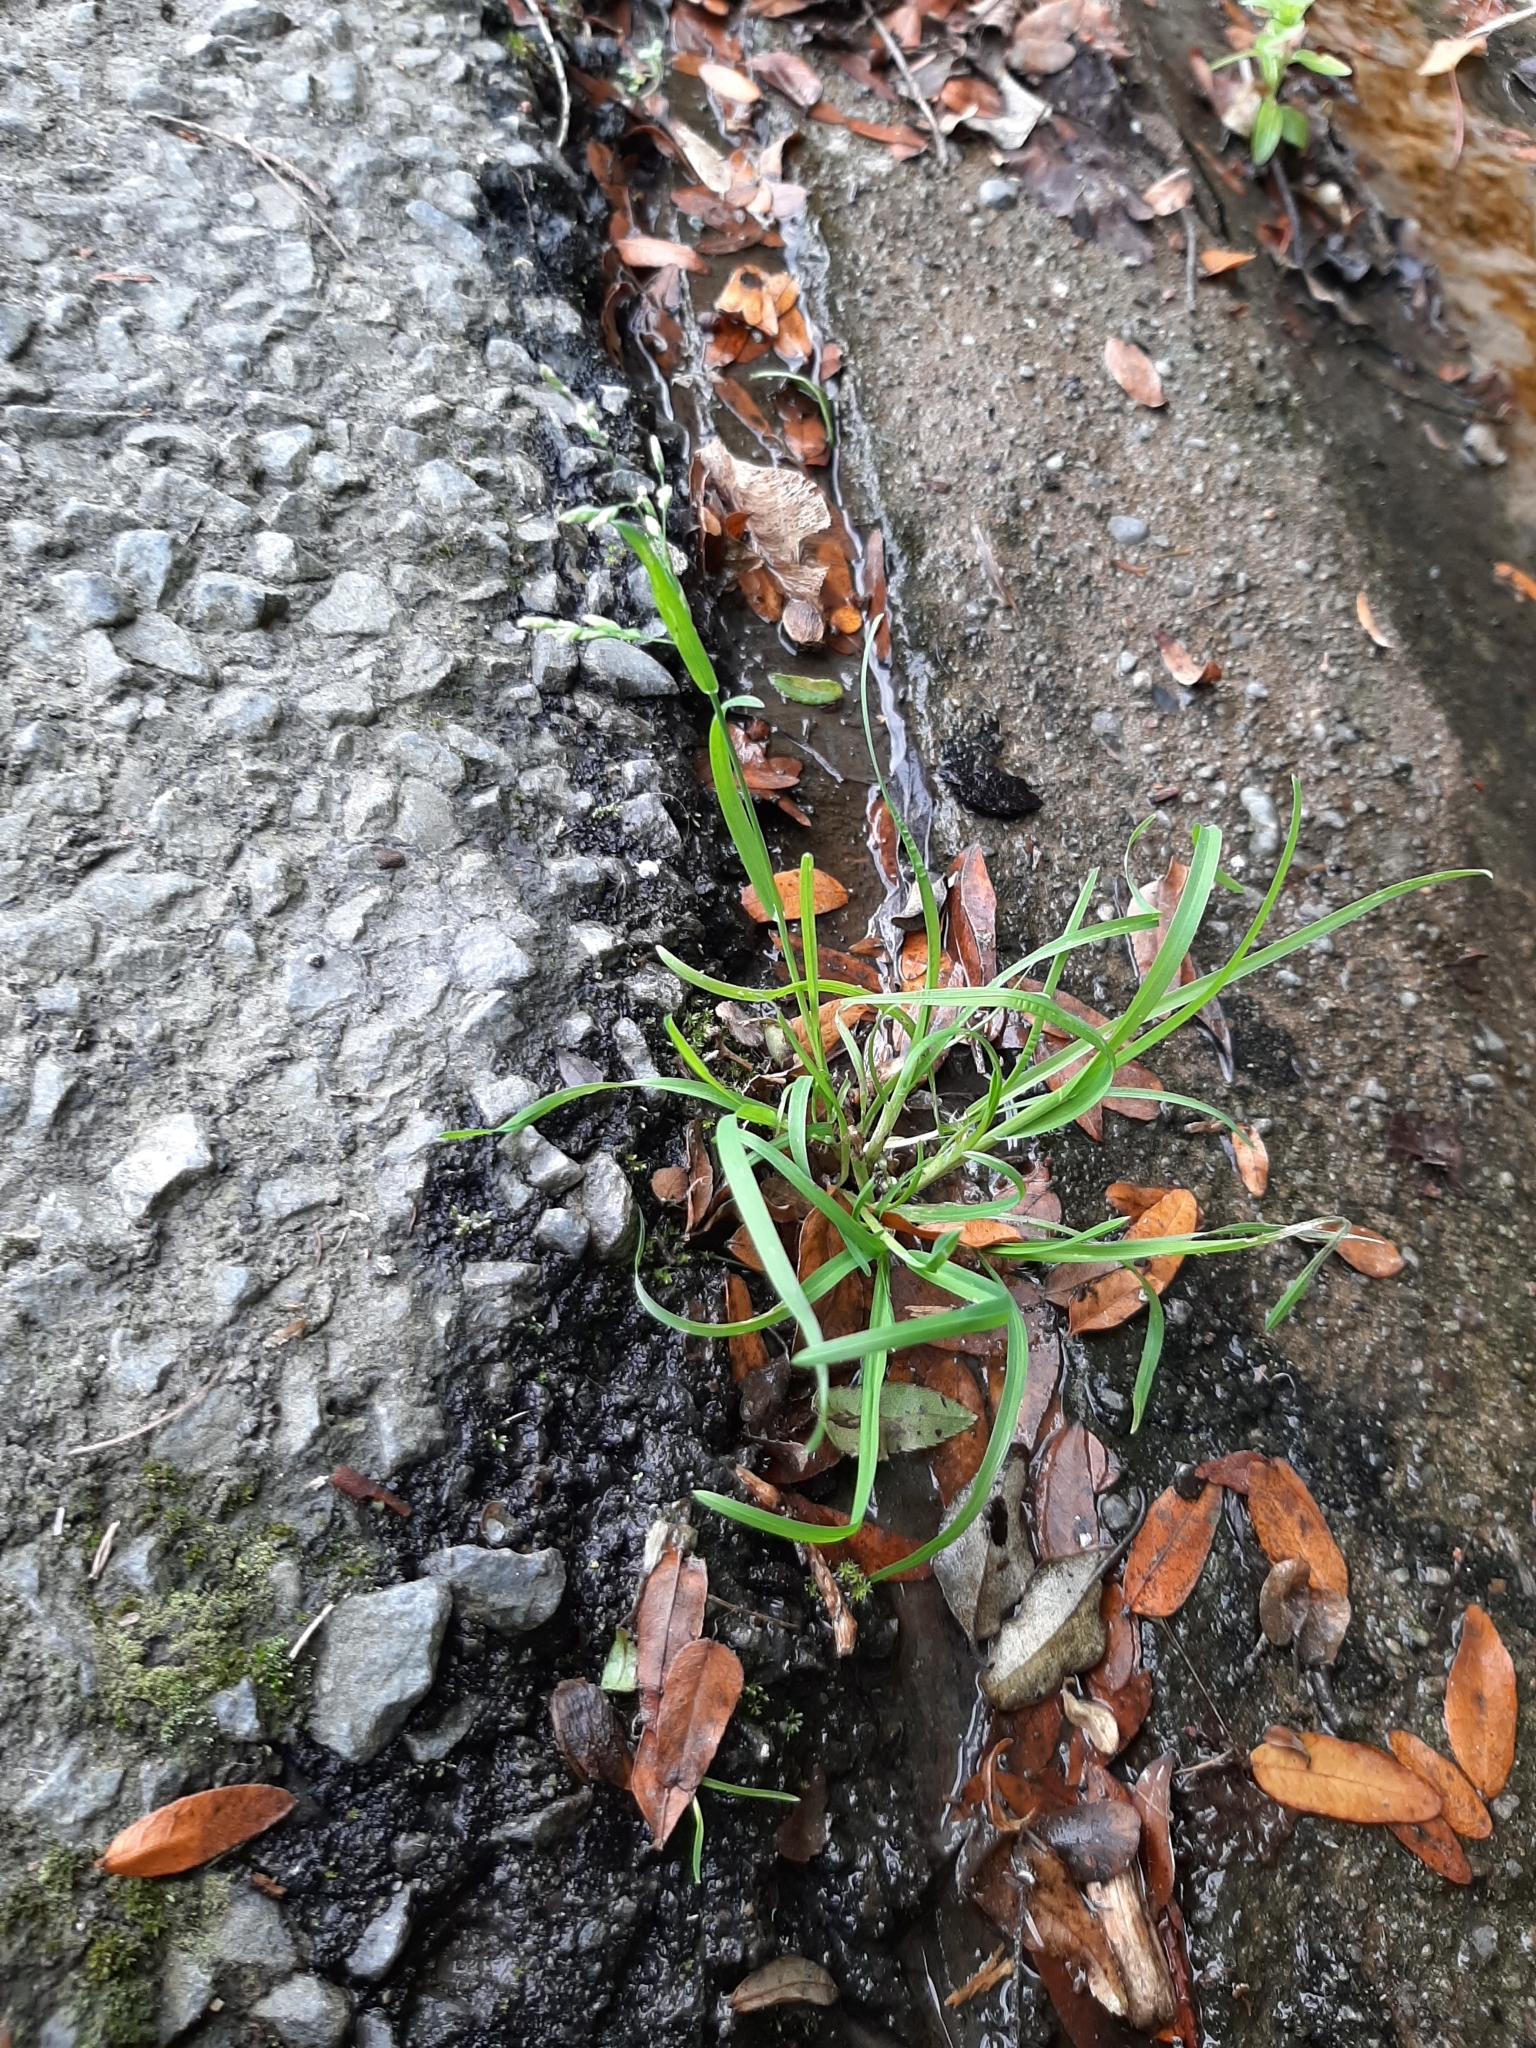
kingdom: Plantae
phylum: Tracheophyta
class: Liliopsida
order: Poales
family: Poaceae
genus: Poa
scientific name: Poa annua
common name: Annual bluegrass
